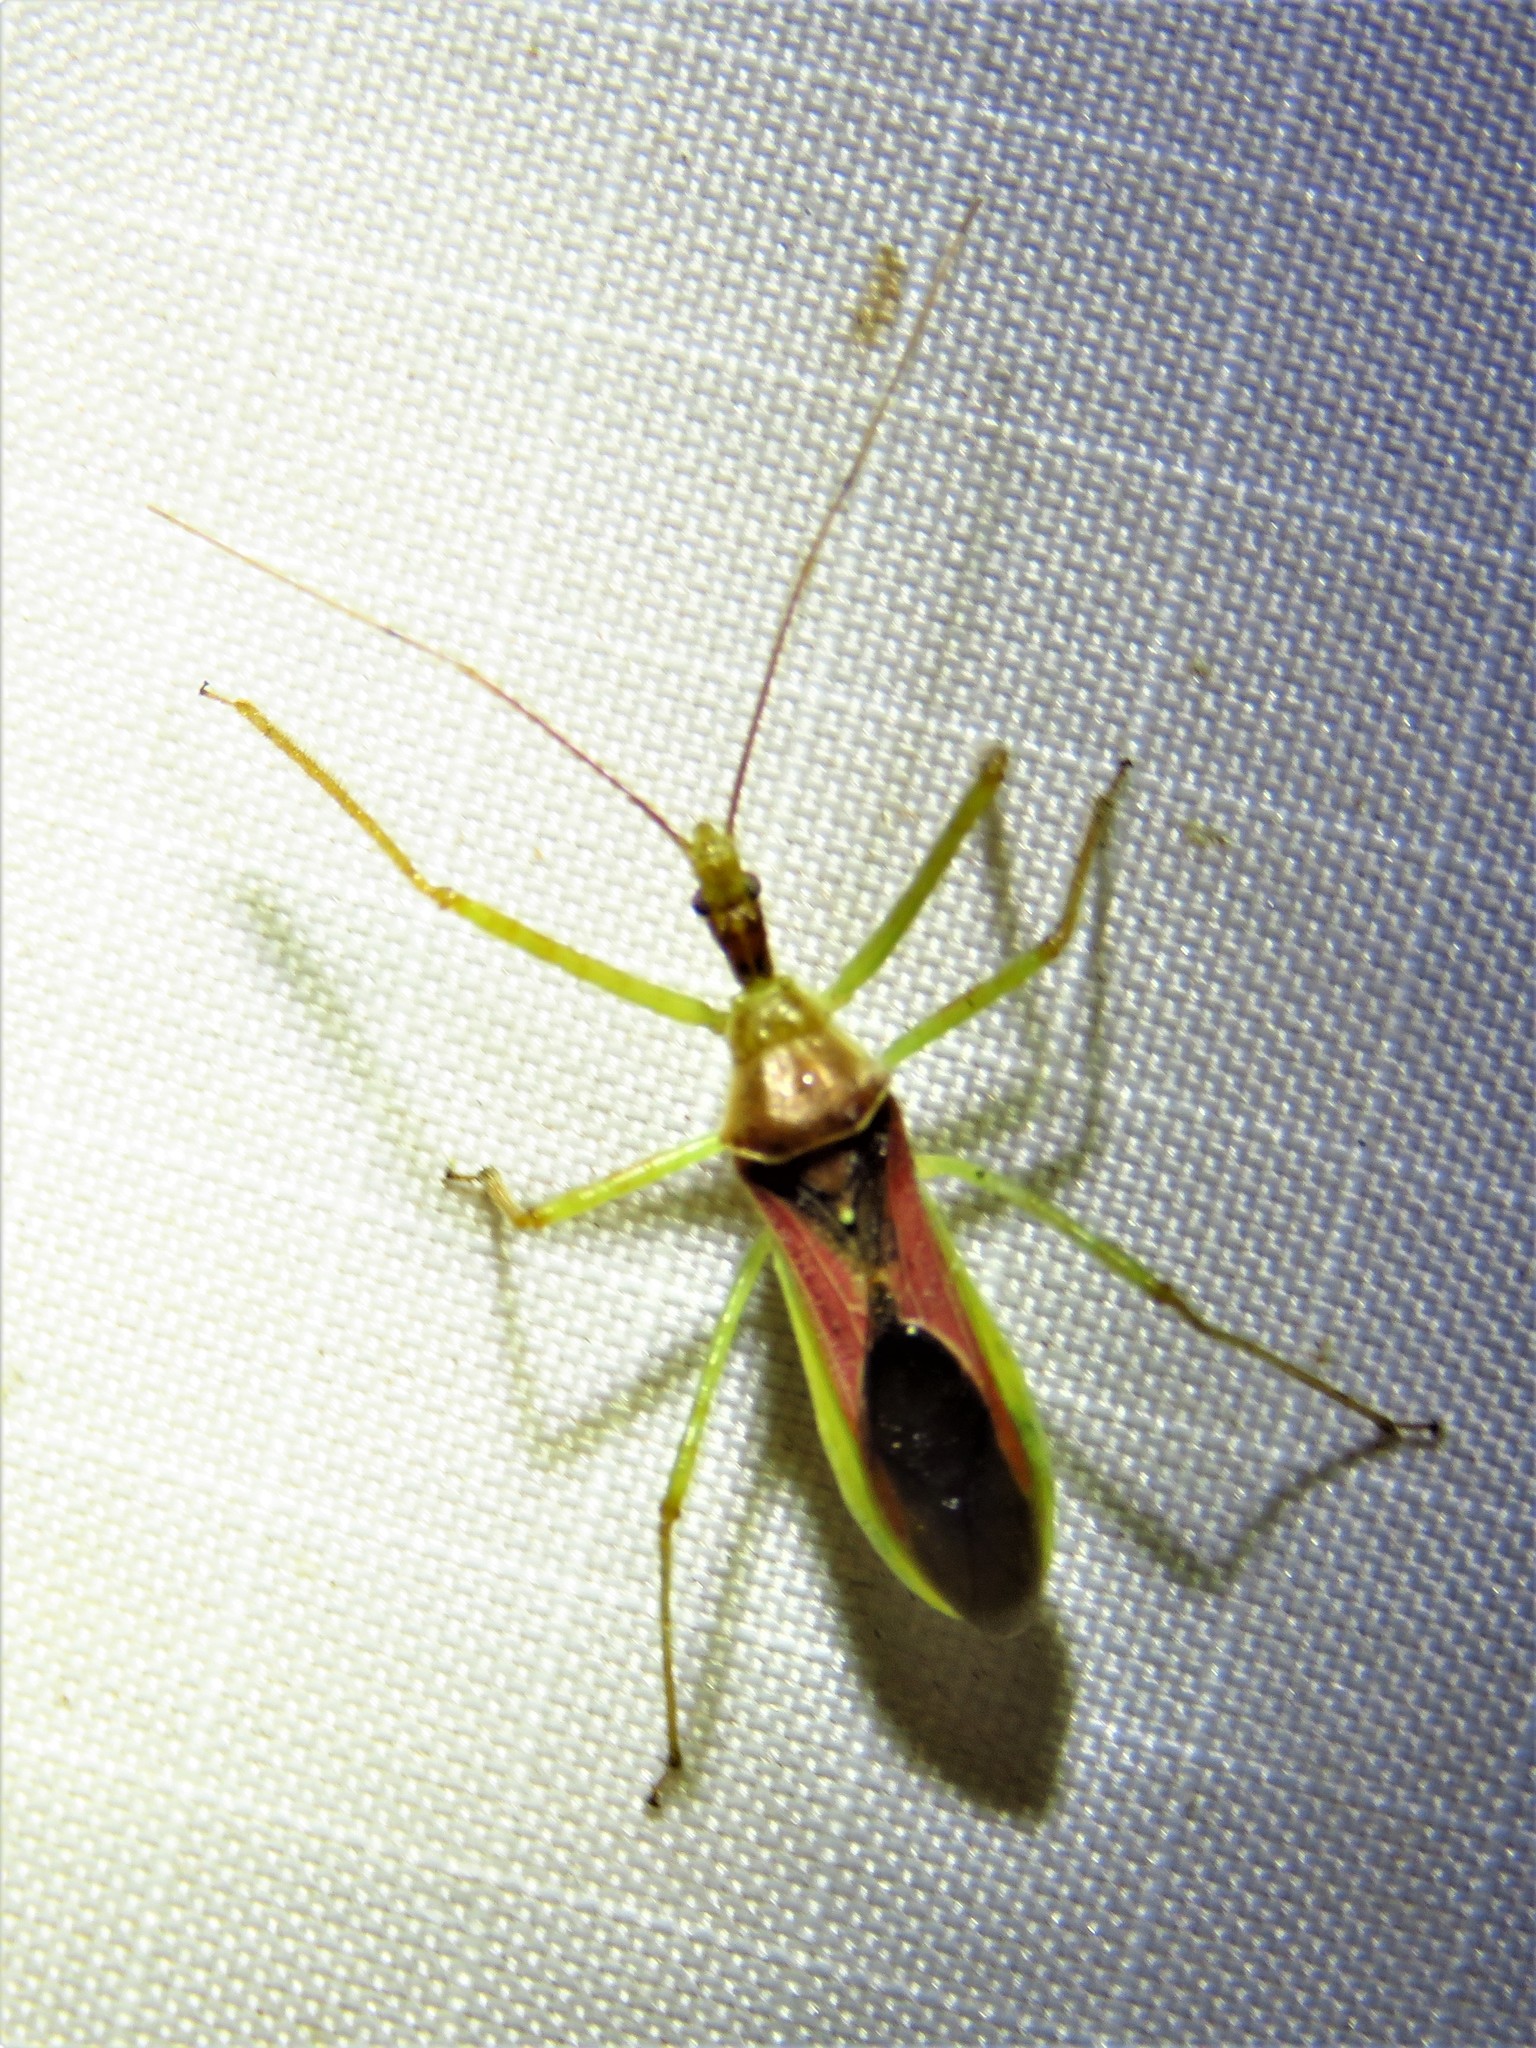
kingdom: Animalia
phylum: Arthropoda
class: Insecta
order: Hemiptera
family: Reduviidae
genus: Zelus
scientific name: Zelus renardii
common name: Assassin bug
